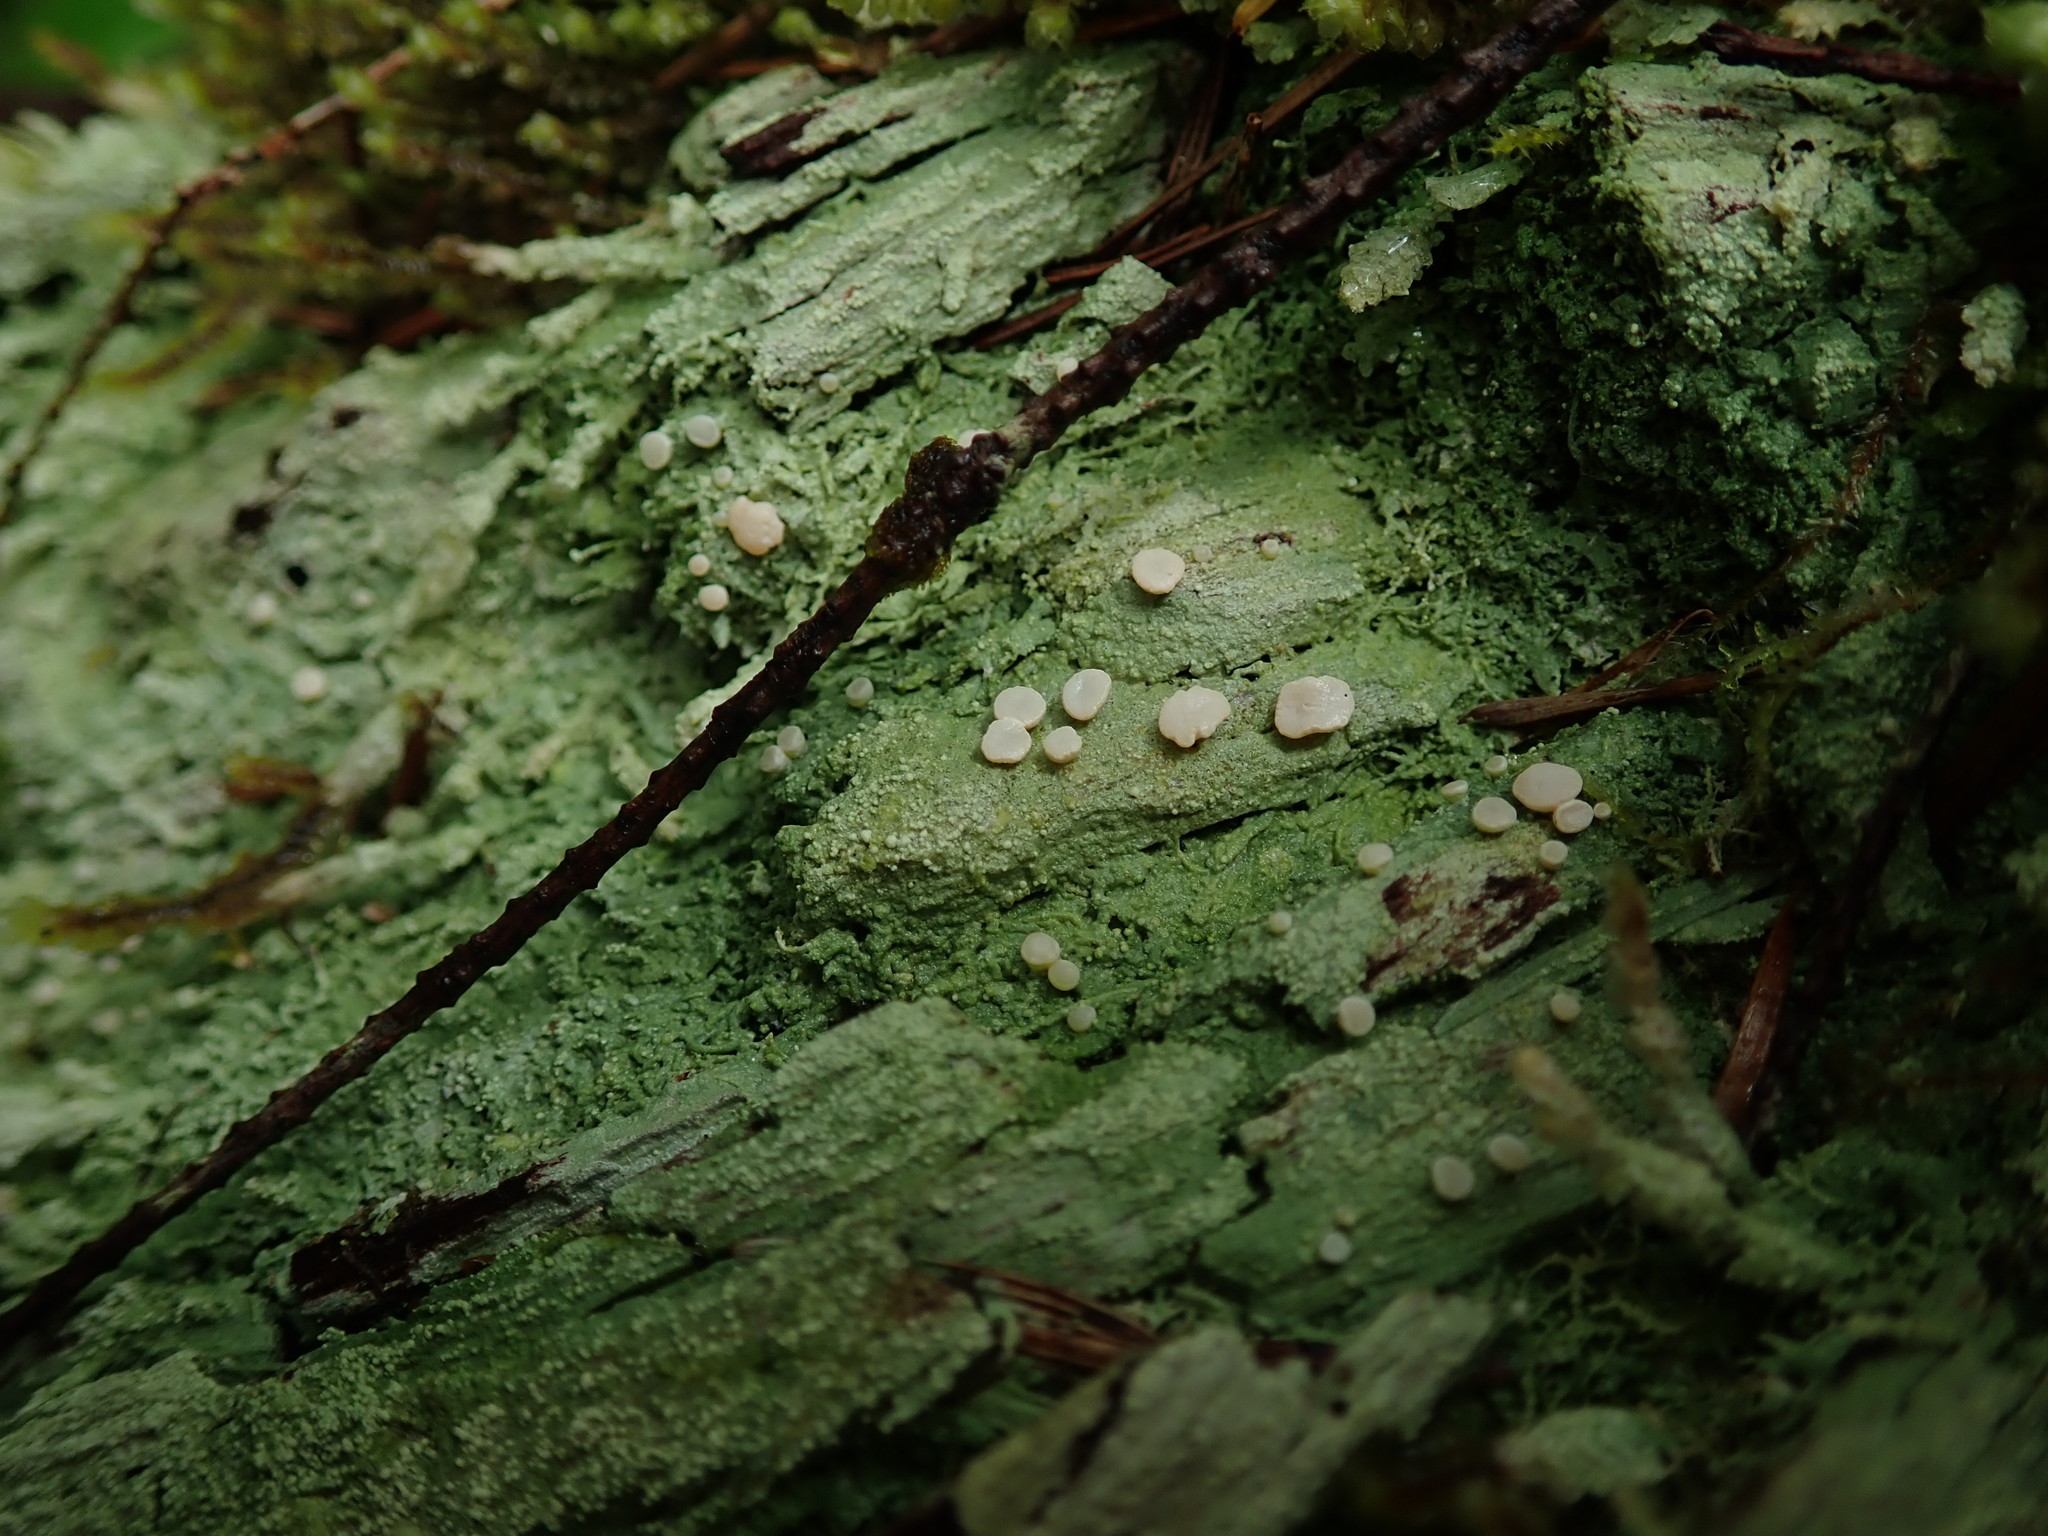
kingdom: Fungi
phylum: Ascomycota
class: Lecanoromycetes
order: Pertusariales
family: Icmadophilaceae
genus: Icmadophila
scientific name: Icmadophila ericetorum
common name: Candy lichen
